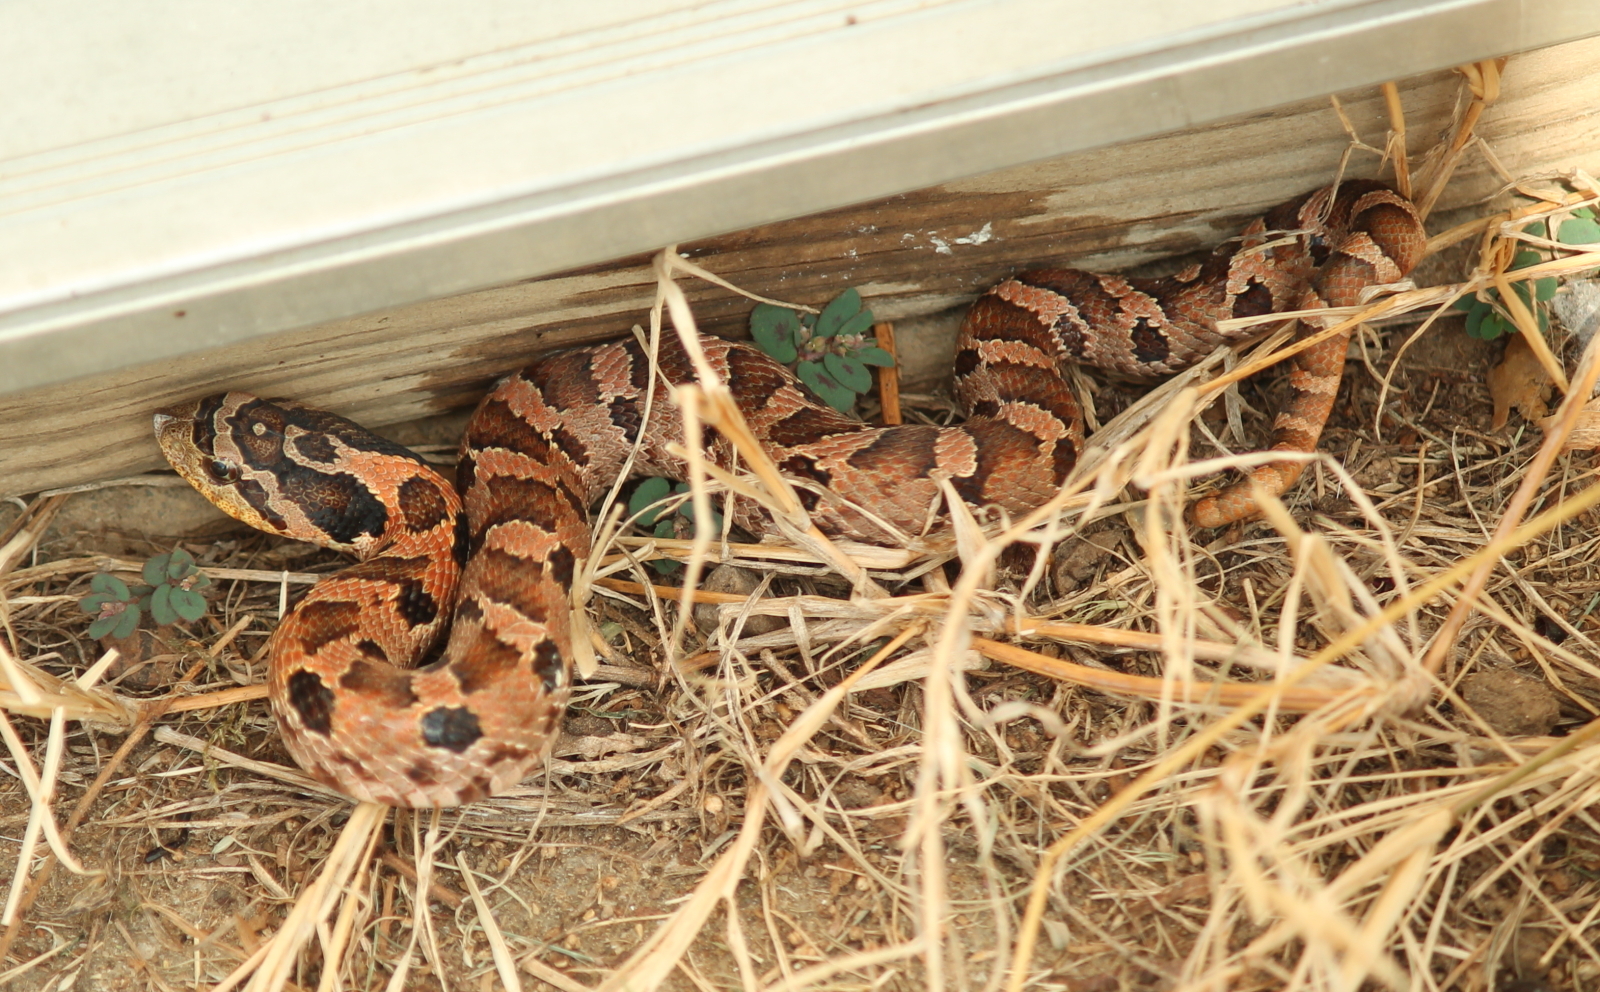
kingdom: Animalia
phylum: Chordata
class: Squamata
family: Colubridae
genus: Heterodon
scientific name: Heterodon platirhinos
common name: Eastern hognose snake
